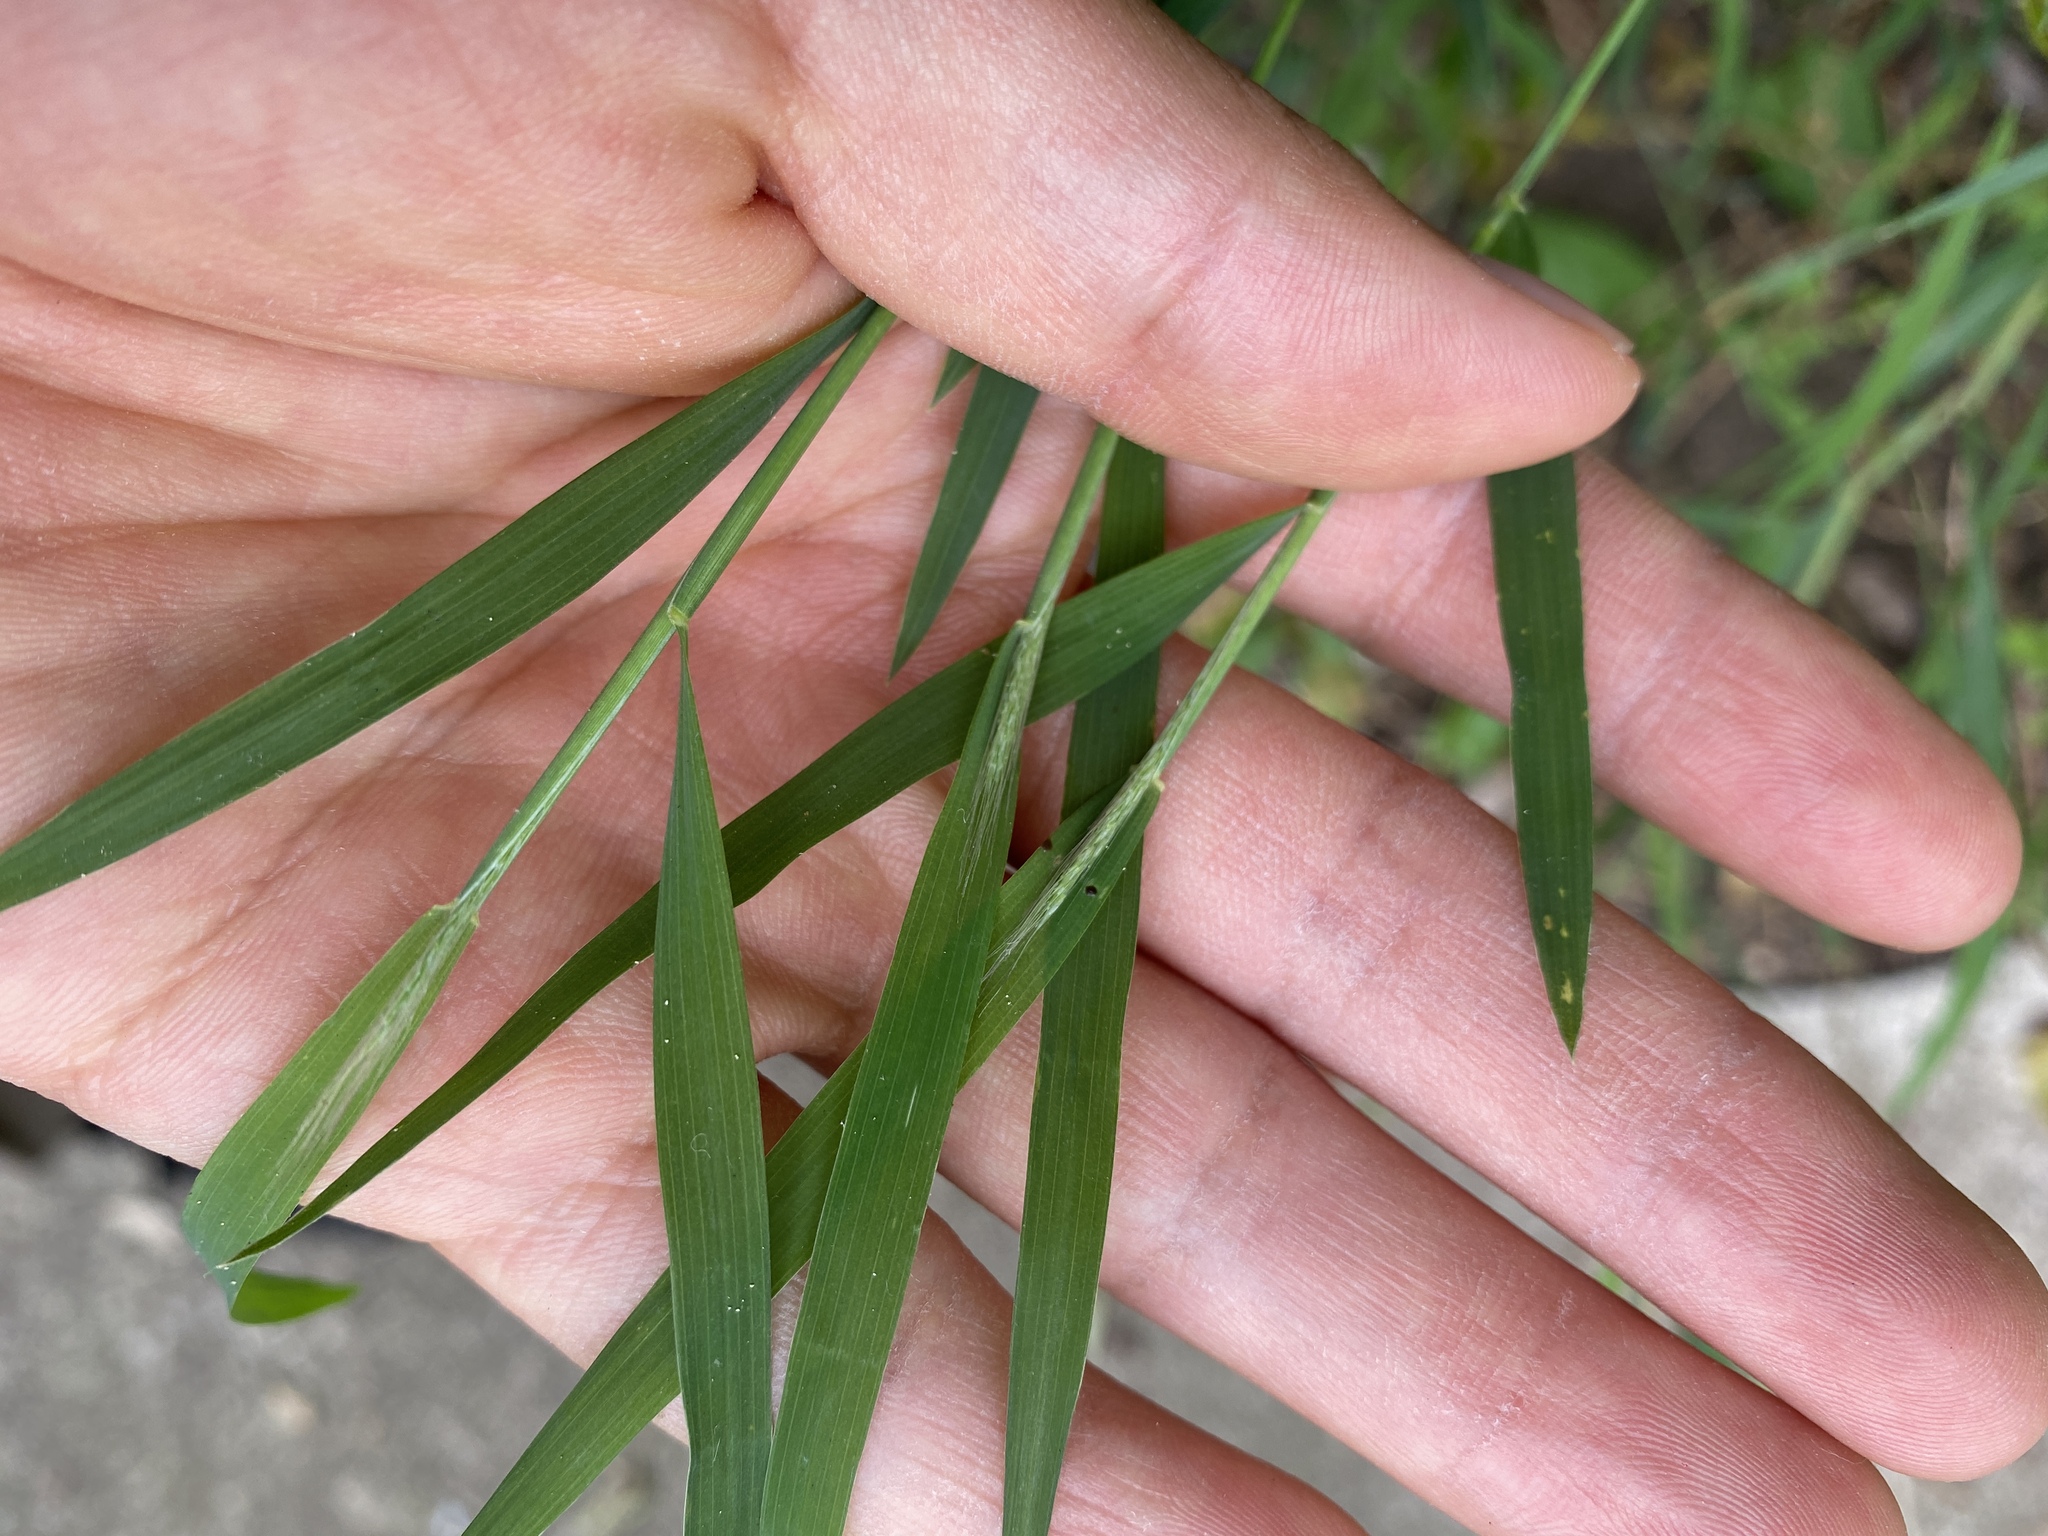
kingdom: Plantae
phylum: Tracheophyta
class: Liliopsida
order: Poales
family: Poaceae
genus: Muhlenbergia
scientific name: Muhlenbergia frondosa
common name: Common satingrass
